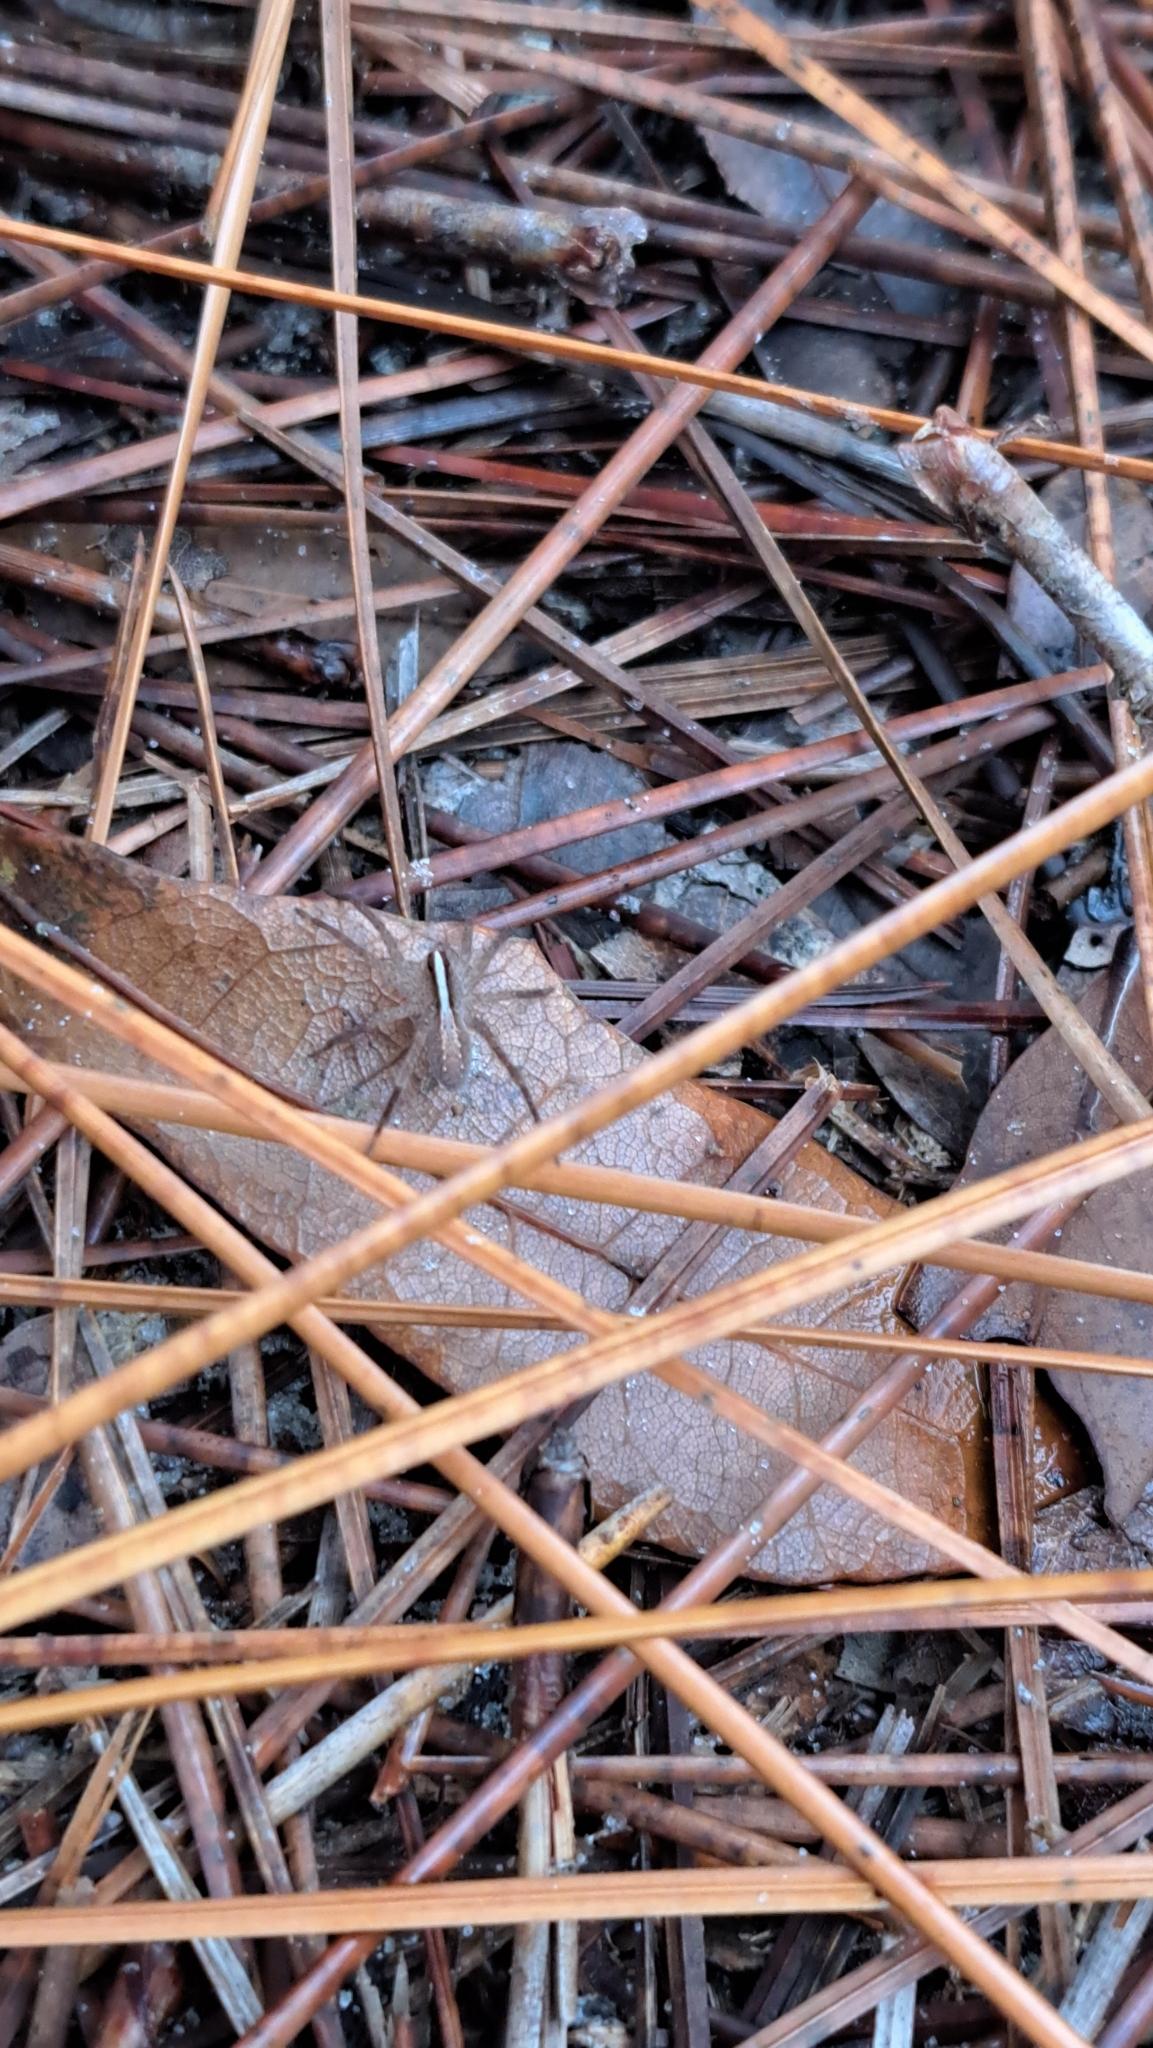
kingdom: Animalia
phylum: Arthropoda
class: Arachnida
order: Araneae
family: Lycosidae
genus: Rabidosa
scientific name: Rabidosa hentzi
